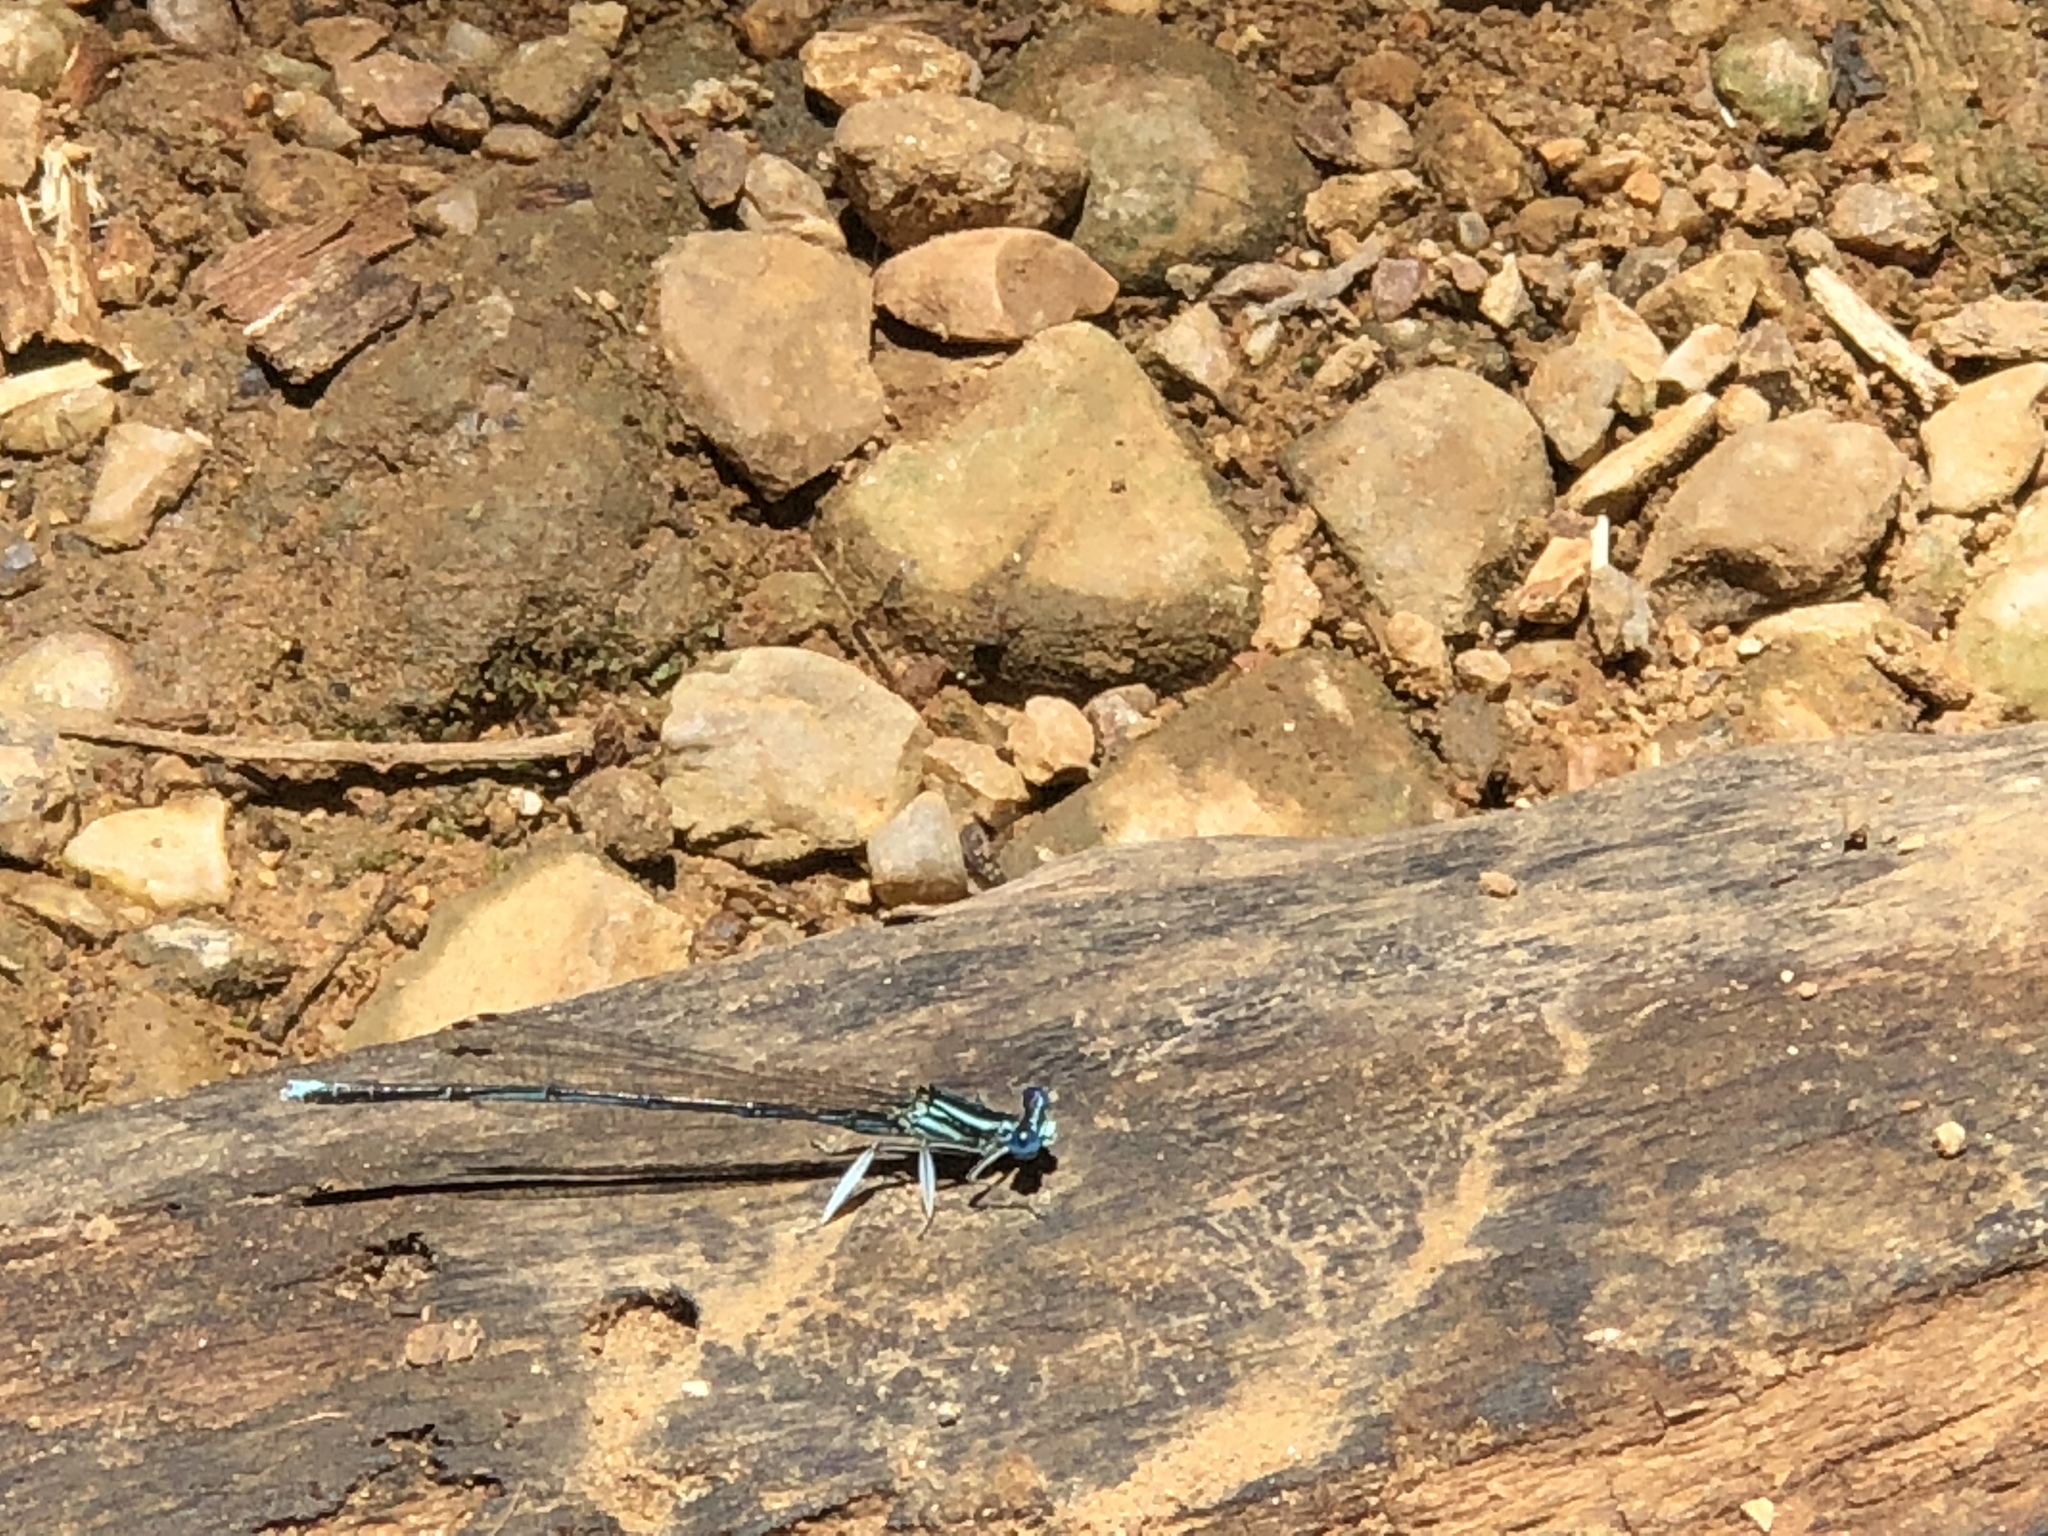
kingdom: Animalia
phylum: Arthropoda
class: Insecta
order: Odonata
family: Platycnemididae
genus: Platycnemis
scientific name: Platycnemis pennipes
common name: White-legged damselfly
